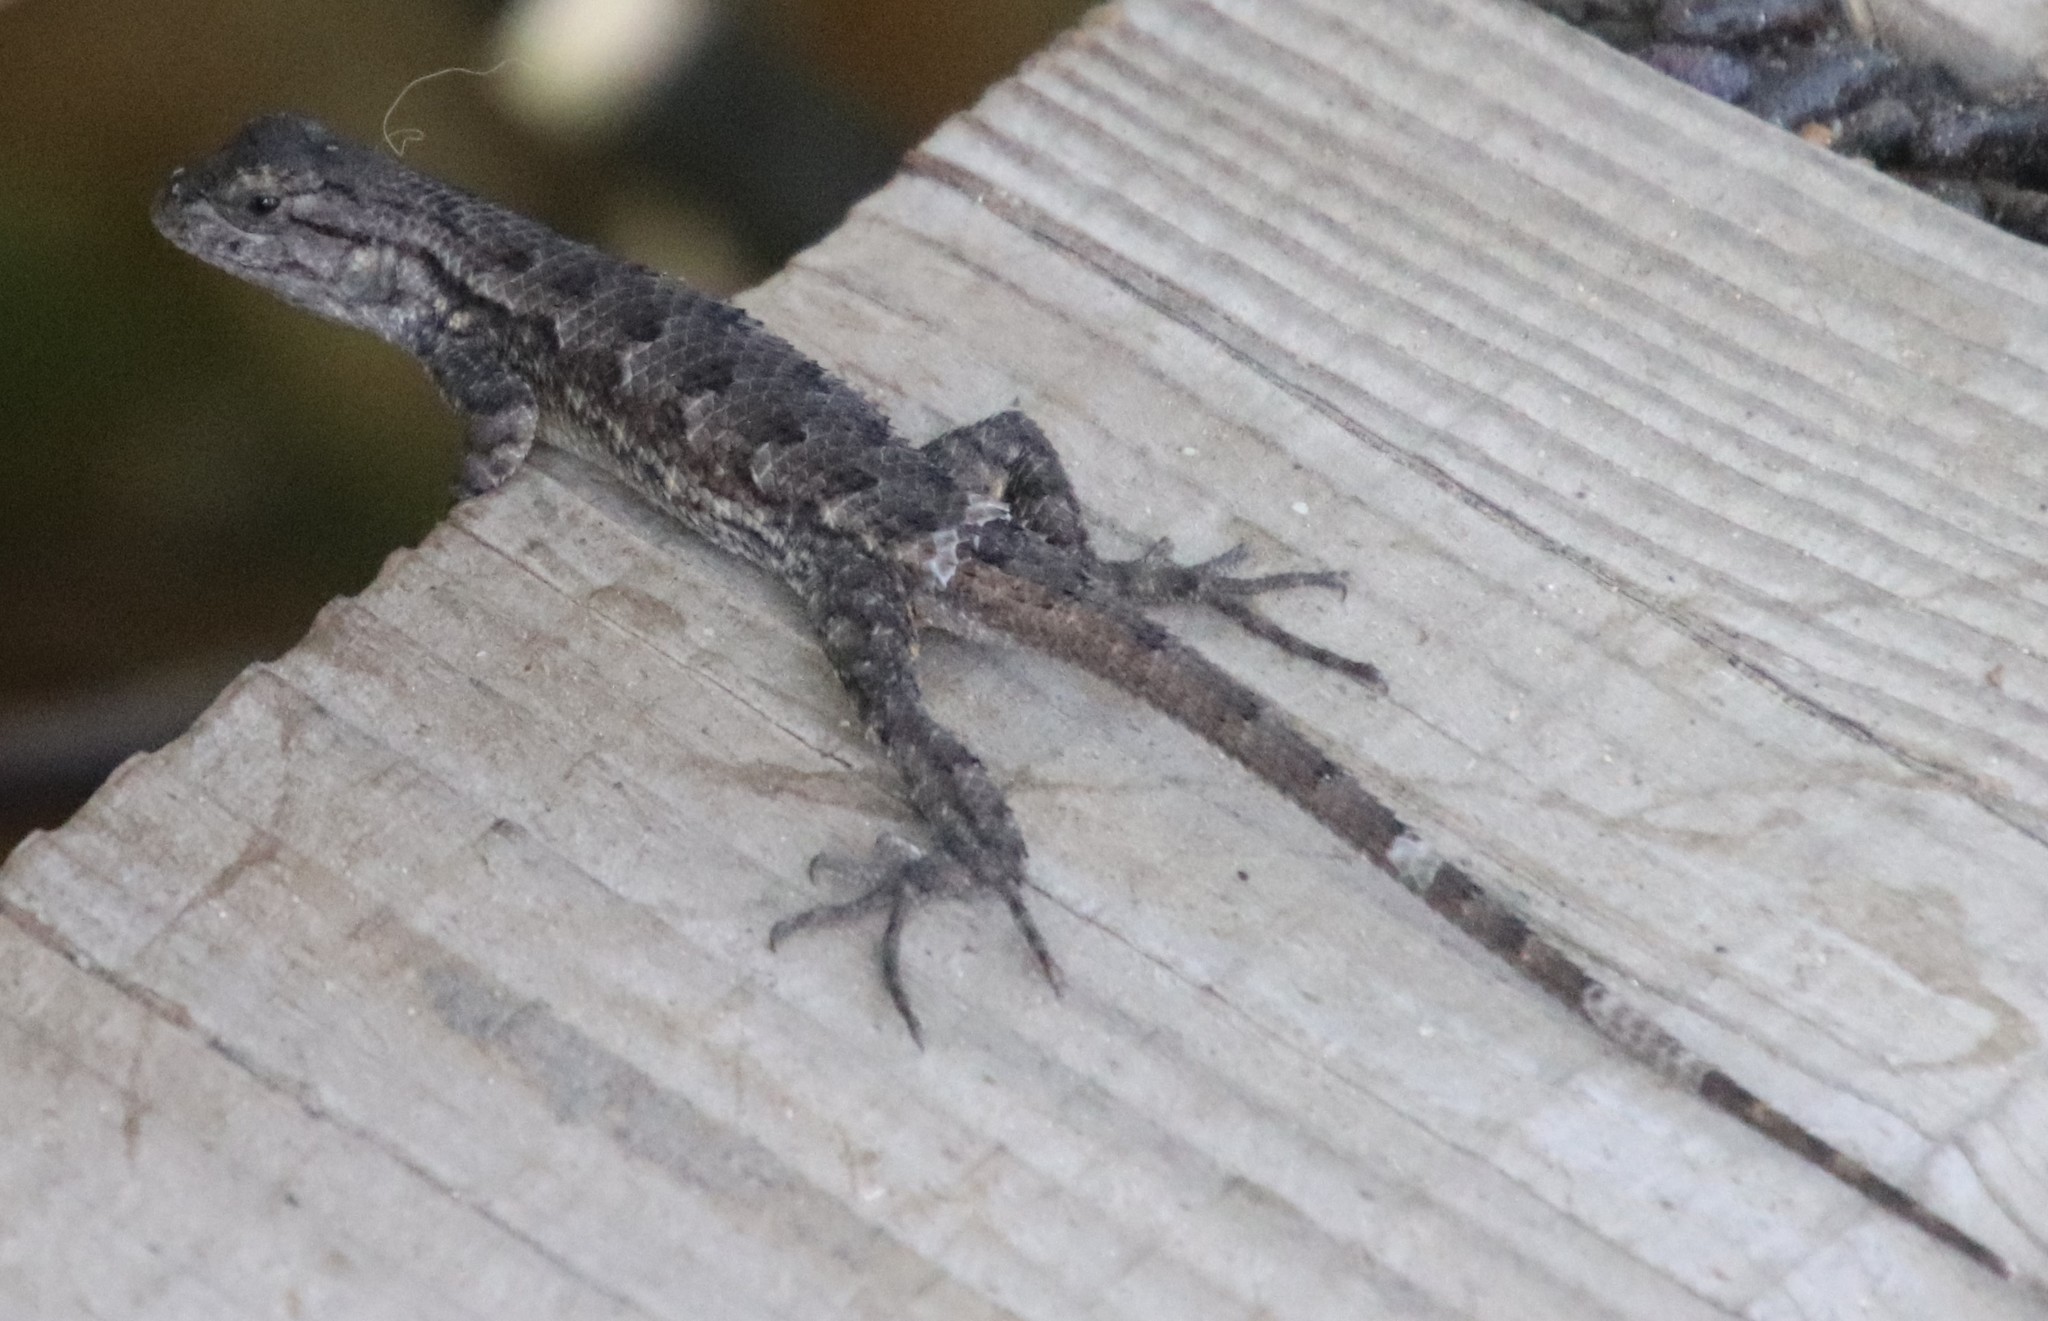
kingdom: Animalia
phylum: Chordata
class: Squamata
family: Phrynosomatidae
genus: Sceloporus
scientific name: Sceloporus occidentalis
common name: Western fence lizard
